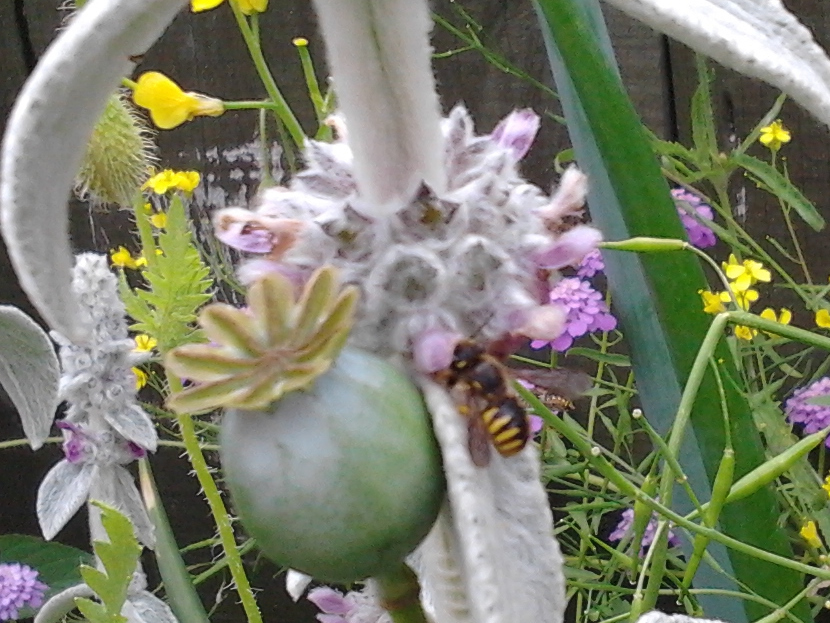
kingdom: Animalia
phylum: Arthropoda
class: Insecta
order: Hymenoptera
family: Megachilidae
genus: Anthidium
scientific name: Anthidium manicatum
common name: Wool carder bee
